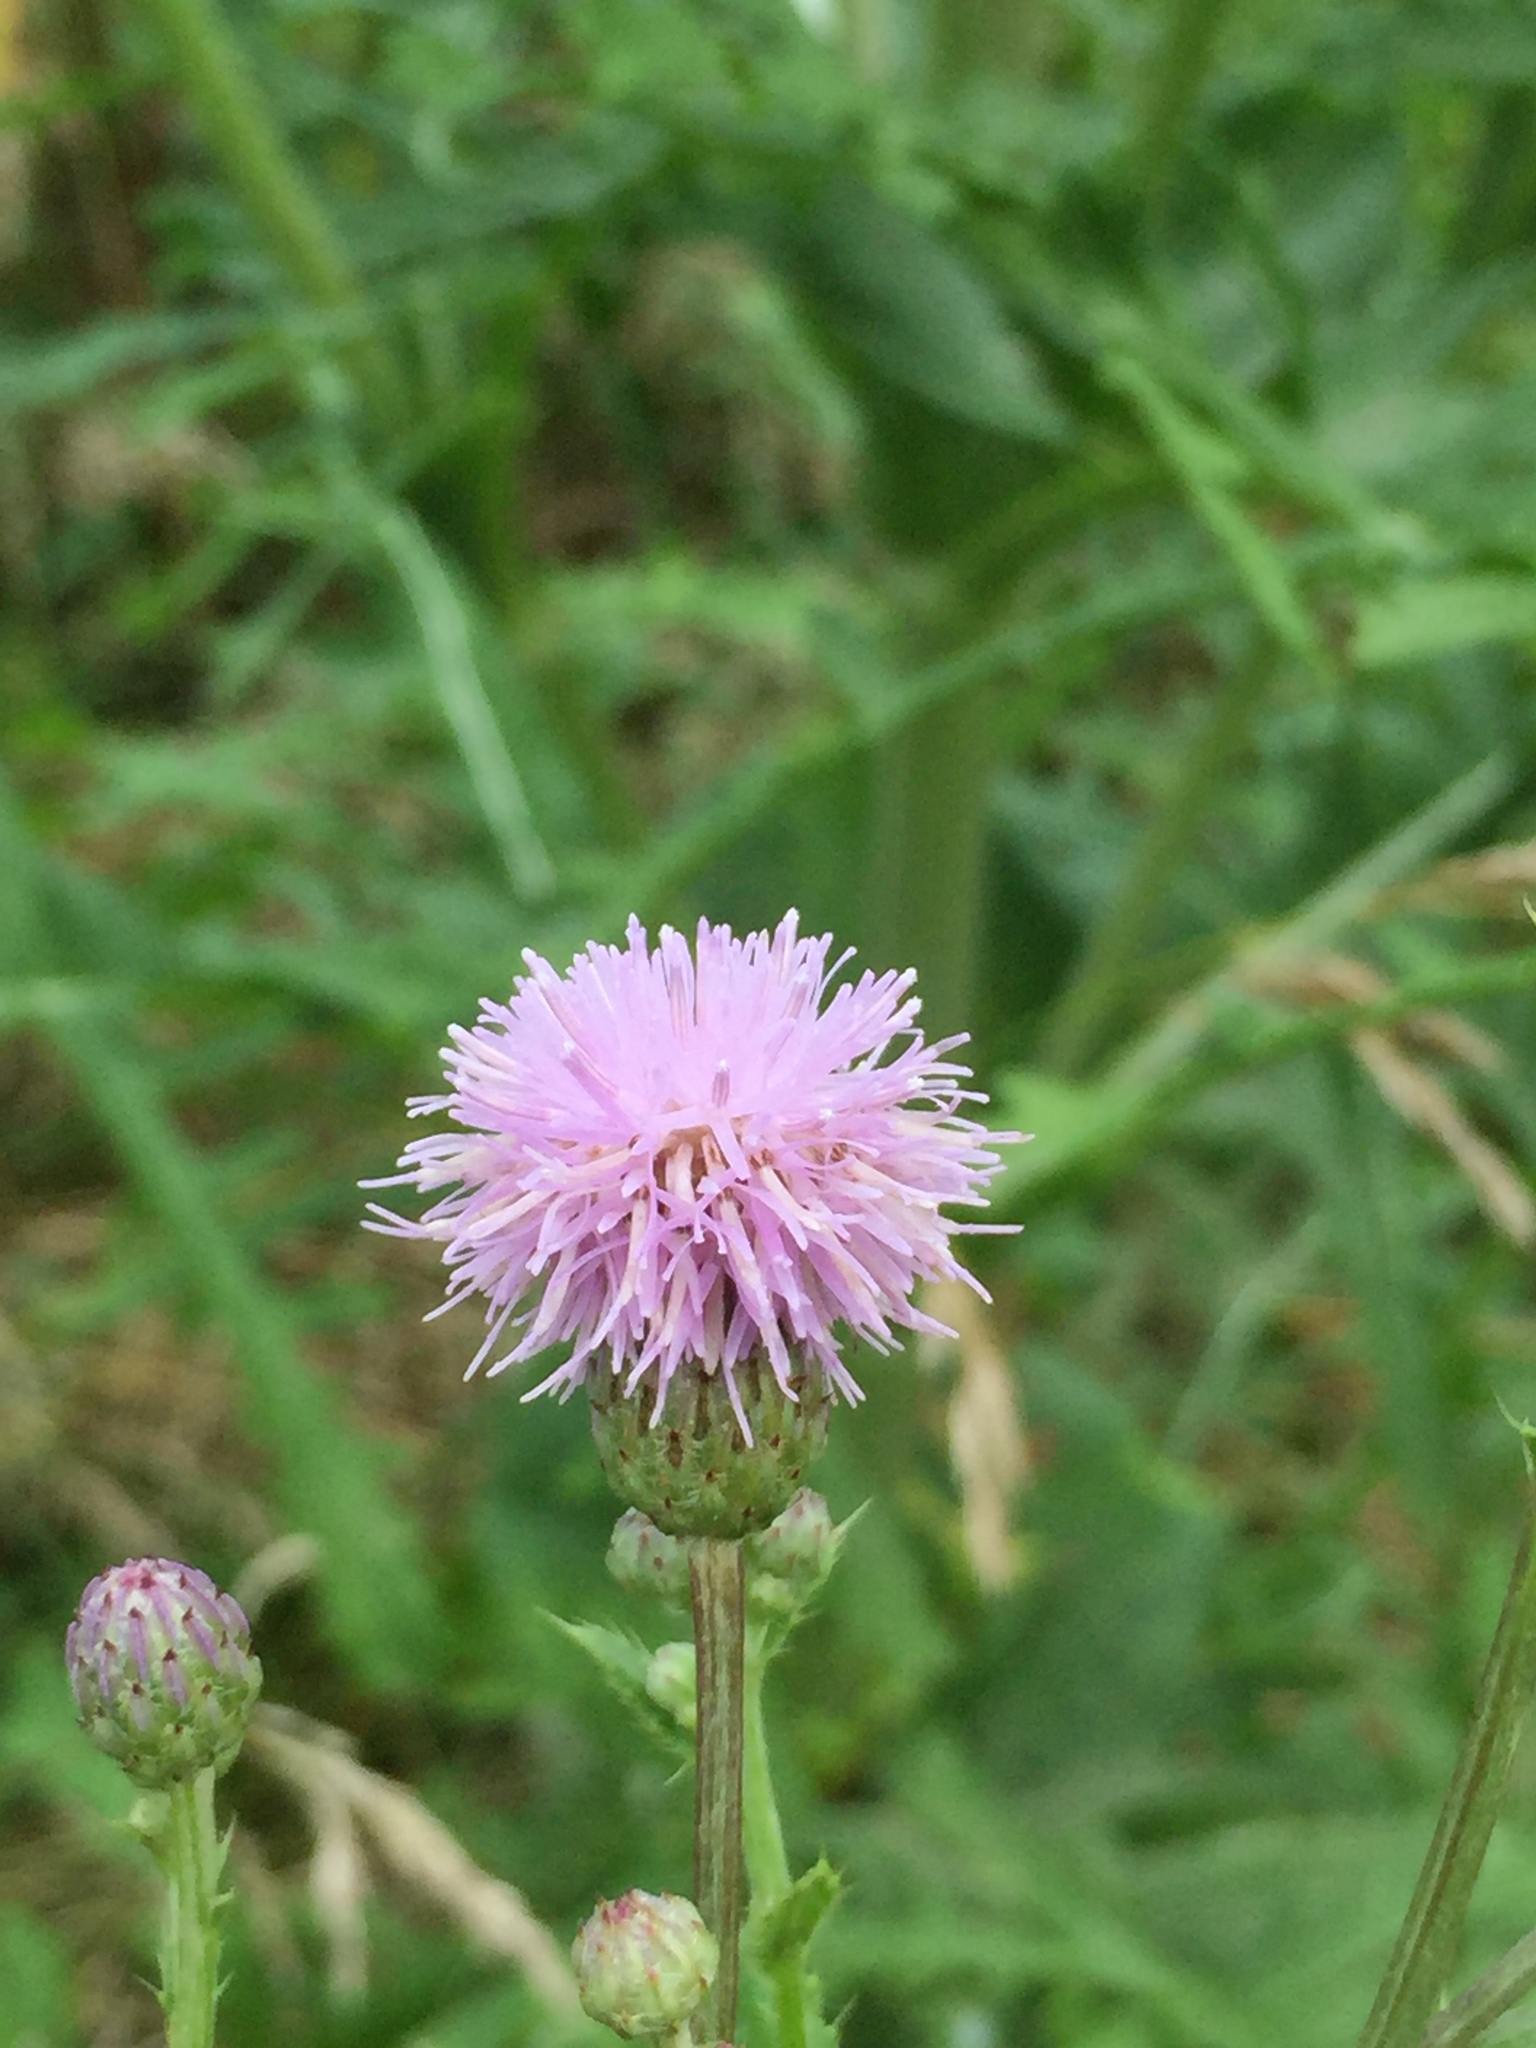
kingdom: Plantae
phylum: Tracheophyta
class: Magnoliopsida
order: Asterales
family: Asteraceae
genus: Cirsium
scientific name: Cirsium arvense
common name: Creeping thistle
